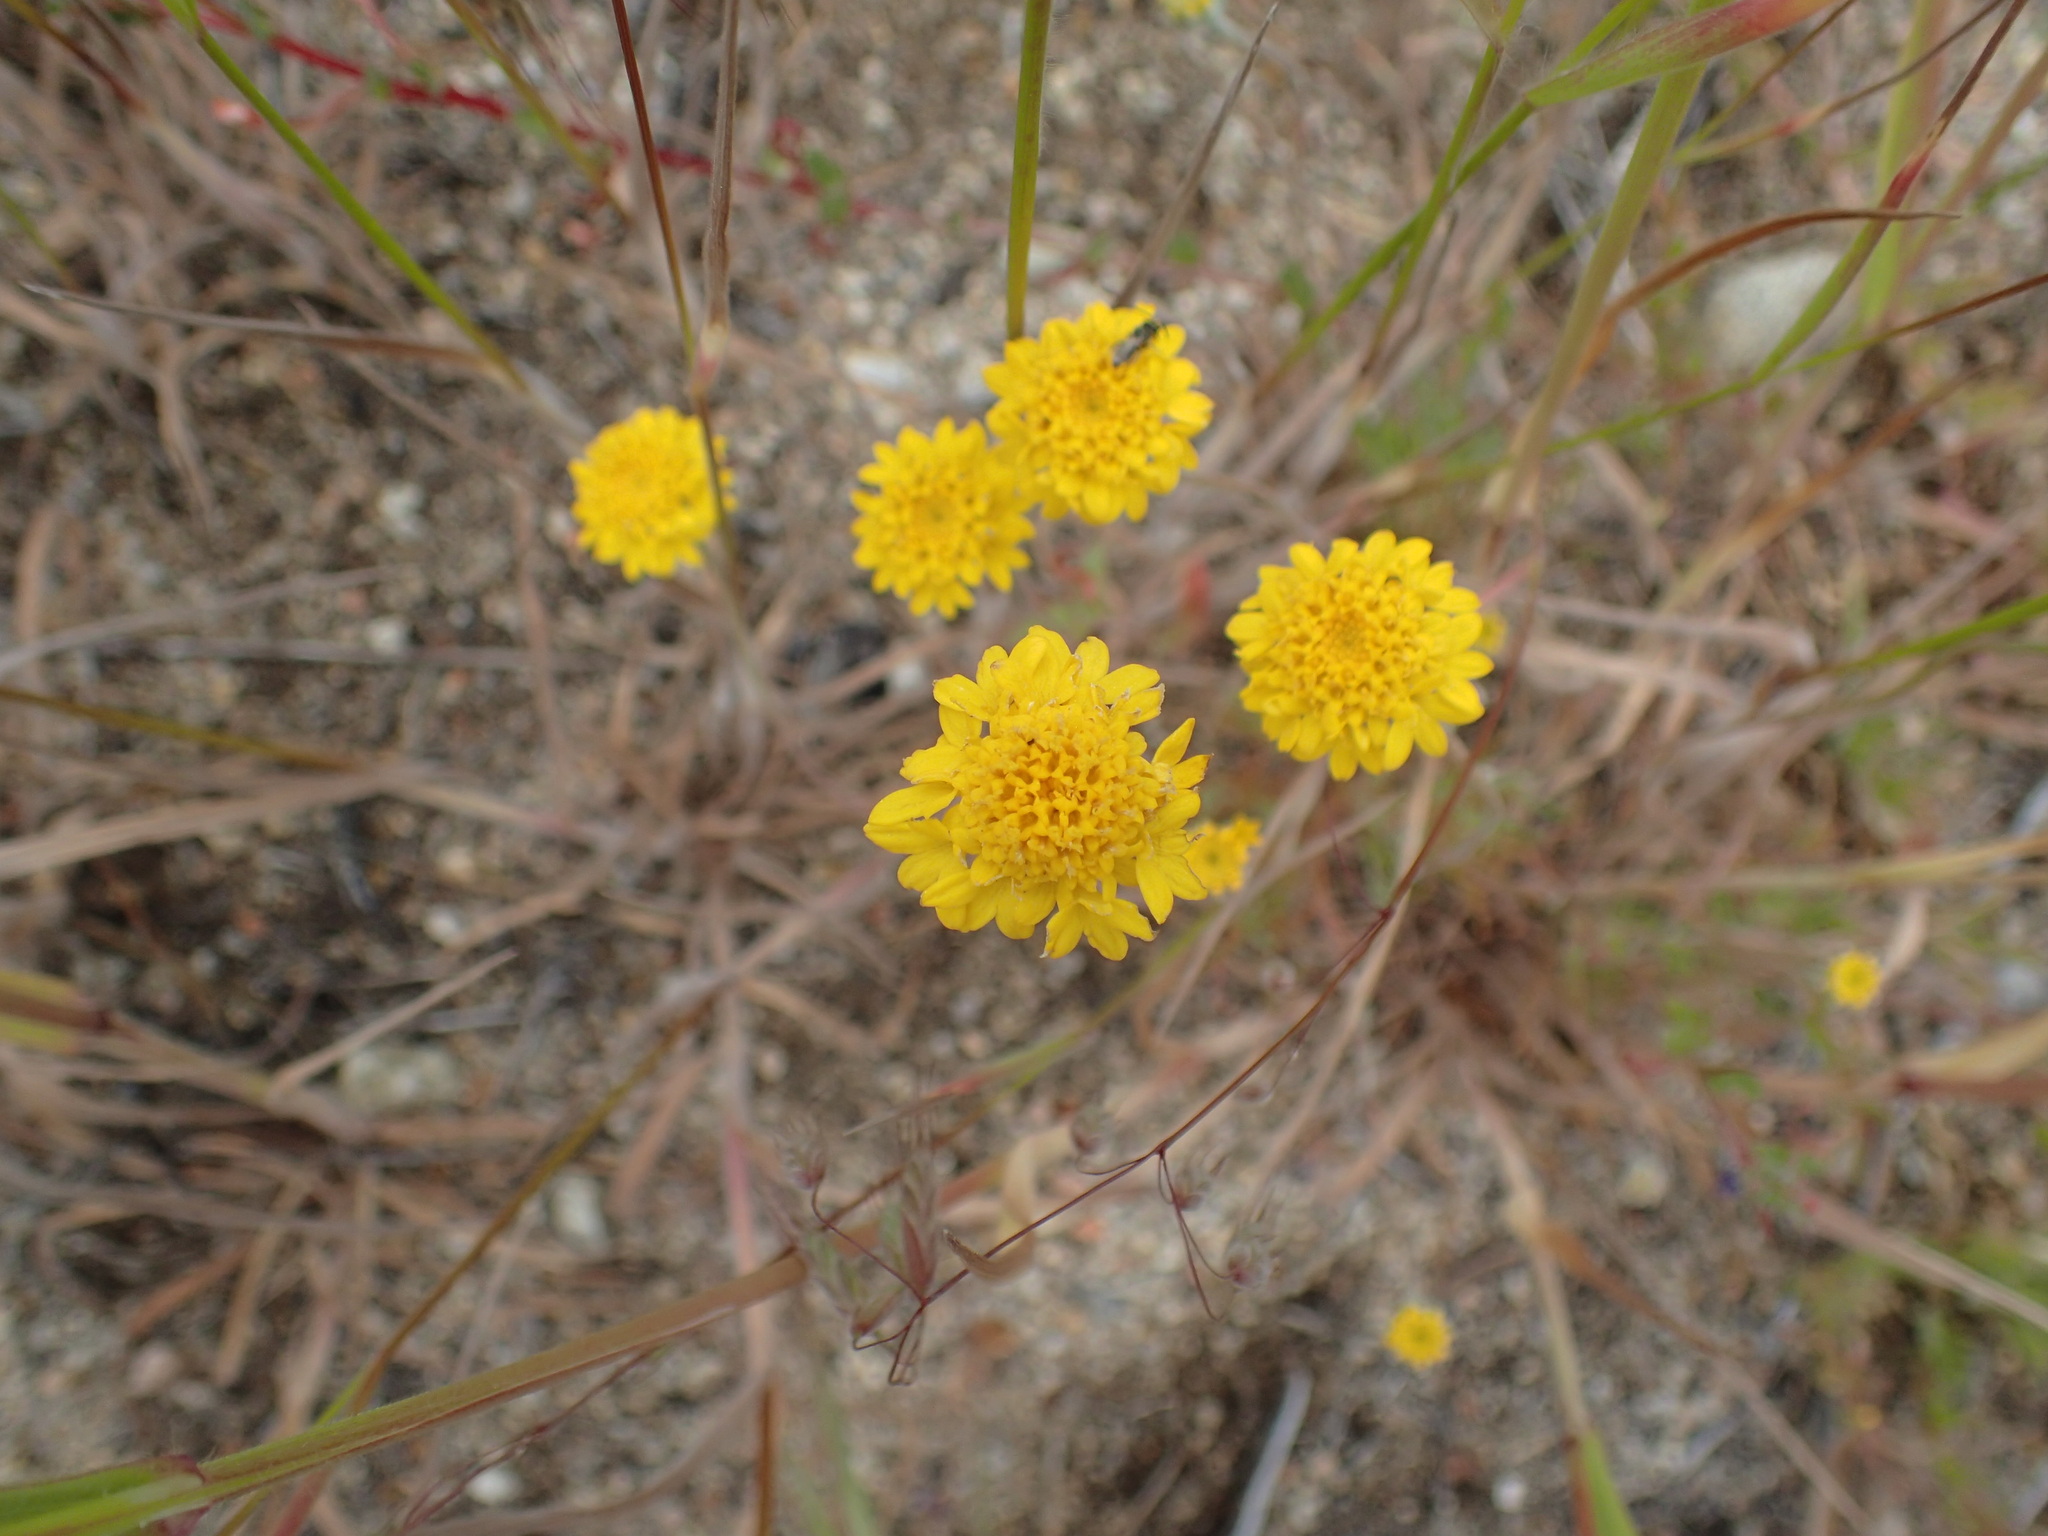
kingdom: Plantae
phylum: Tracheophyta
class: Magnoliopsida
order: Asterales
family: Asteraceae
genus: Chaenactis
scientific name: Chaenactis glabriuscula
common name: Yellow pincushion
